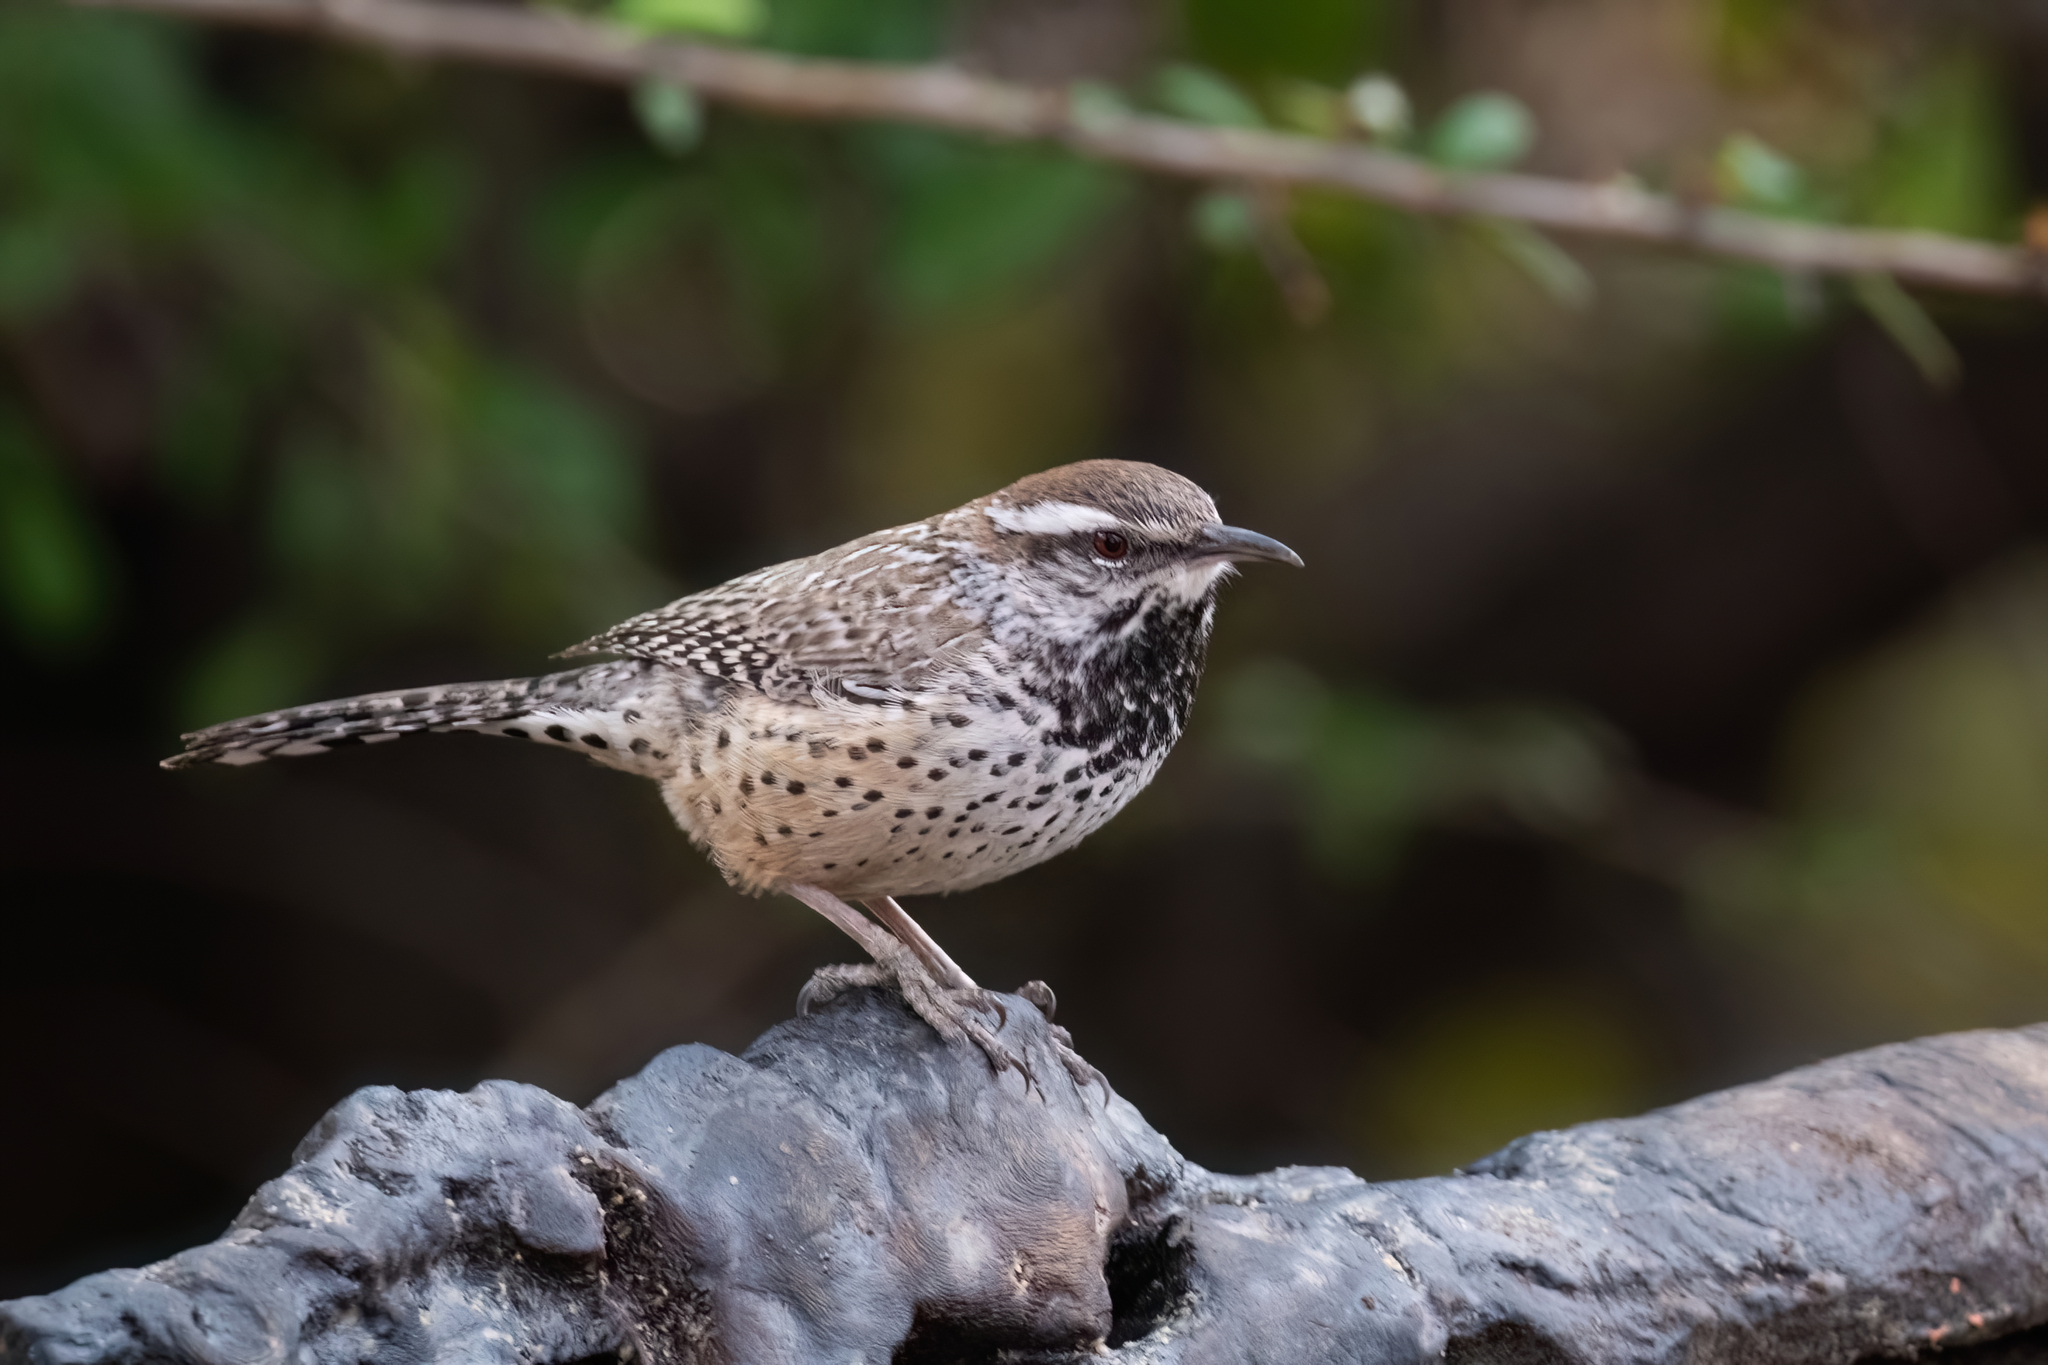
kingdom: Animalia
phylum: Chordata
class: Aves
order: Passeriformes
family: Troglodytidae
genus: Campylorhynchus
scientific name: Campylorhynchus brunneicapillus
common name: Cactus wren
